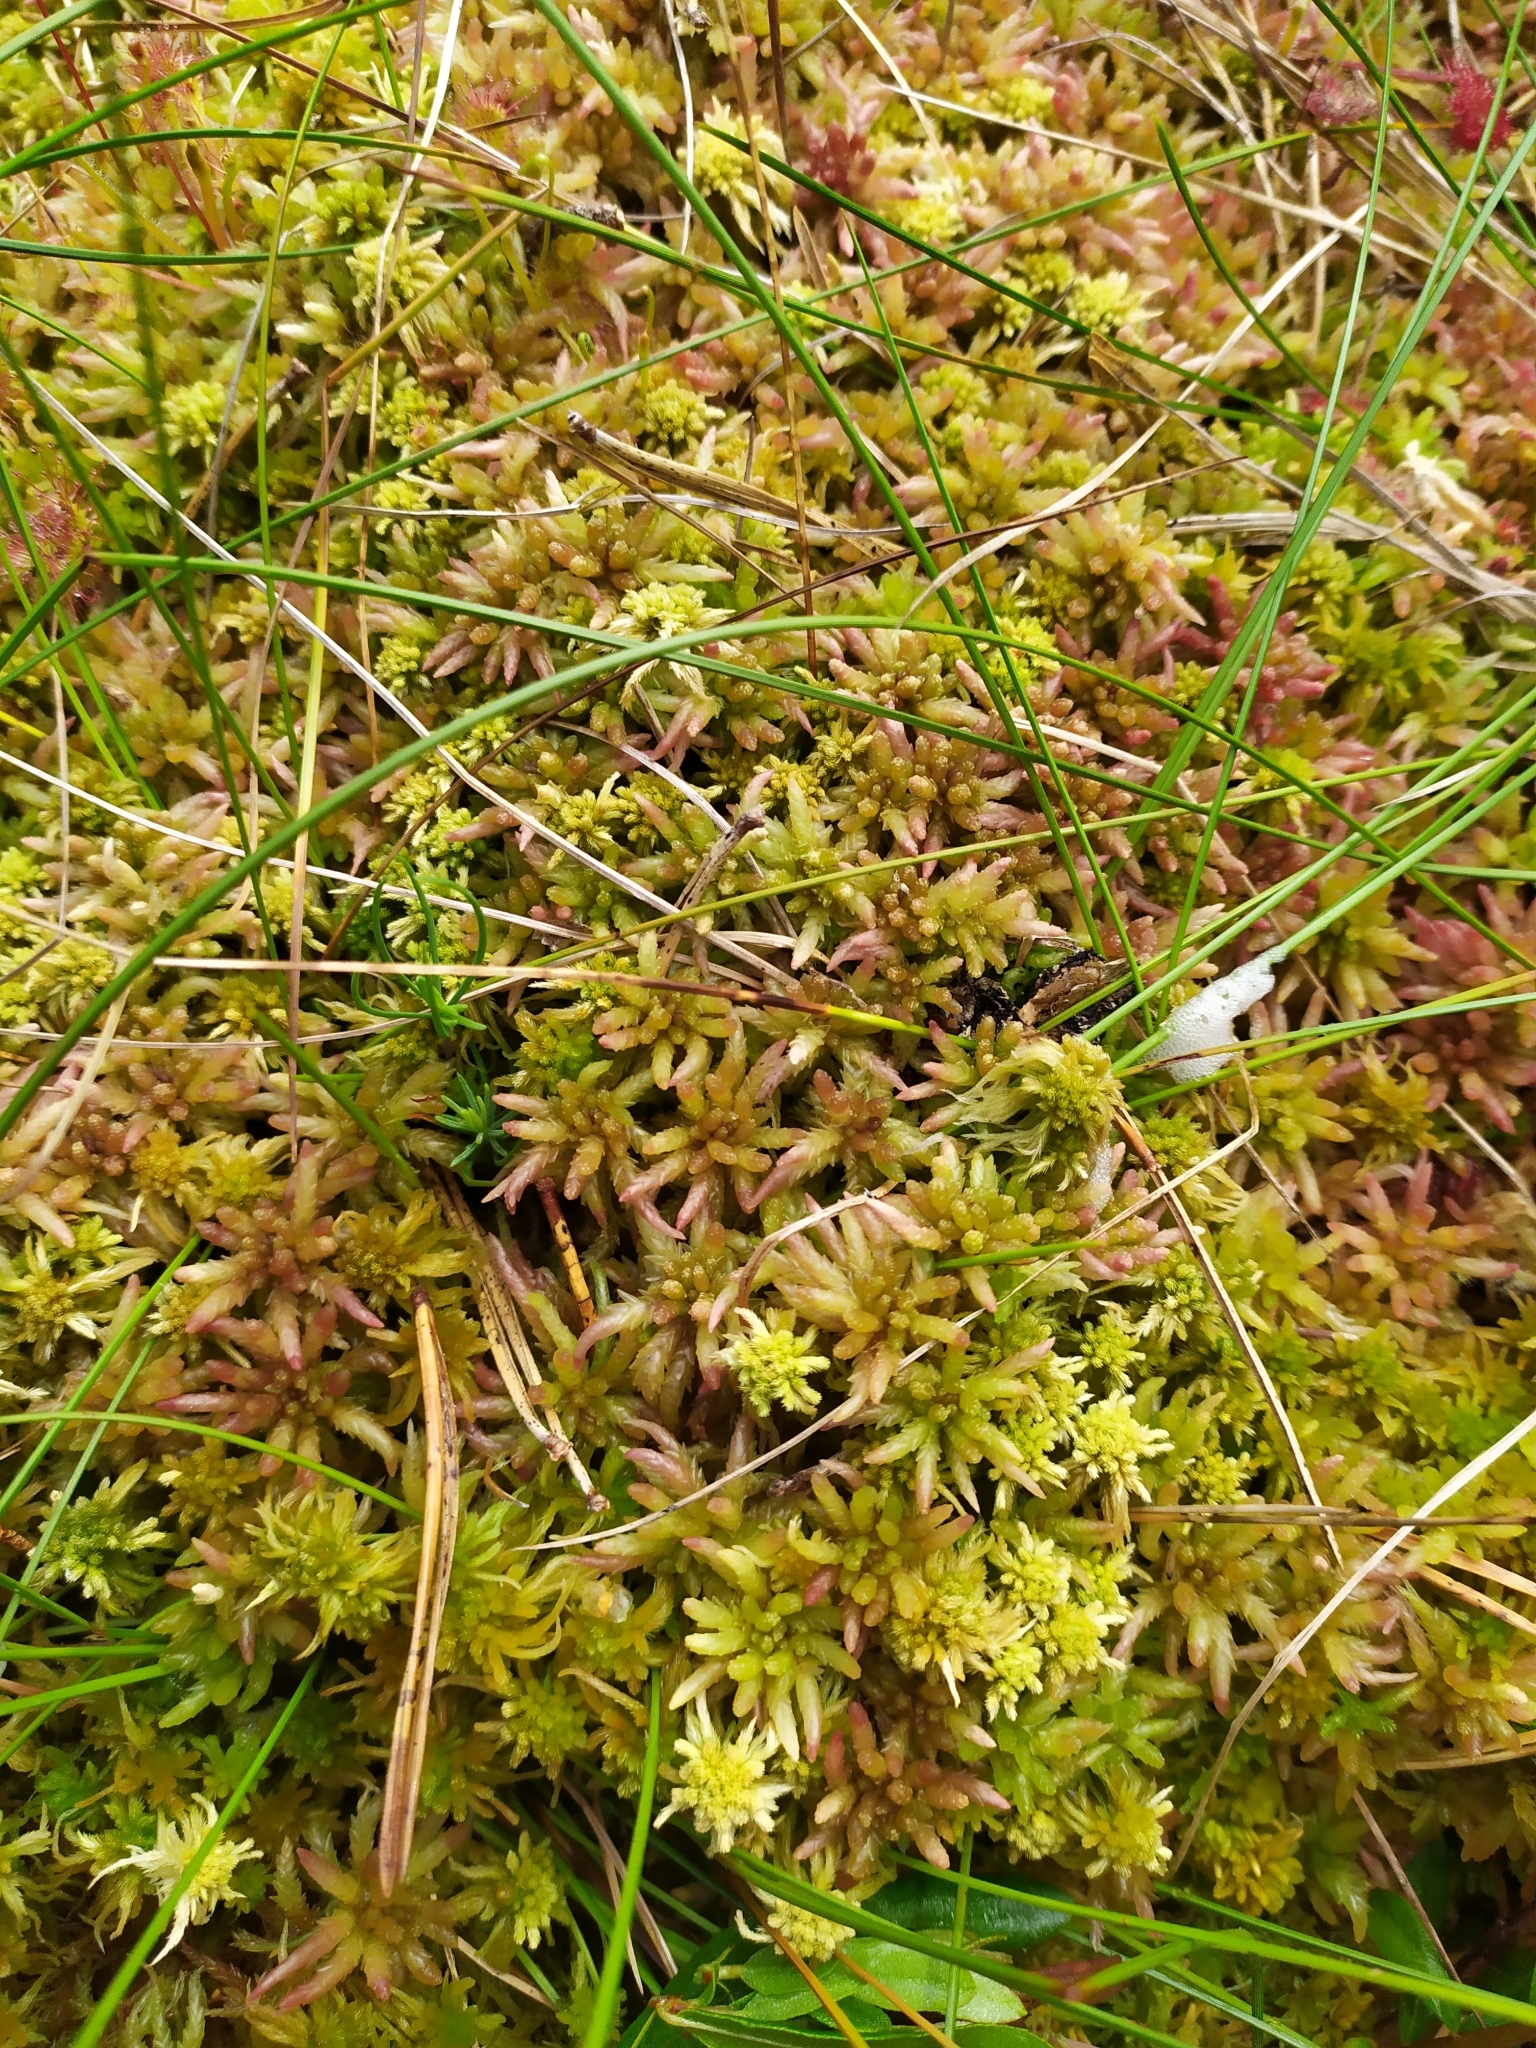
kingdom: Plantae
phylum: Bryophyta
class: Sphagnopsida
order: Sphagnales
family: Sphagnaceae
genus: Sphagnum
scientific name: Sphagnum divinum
